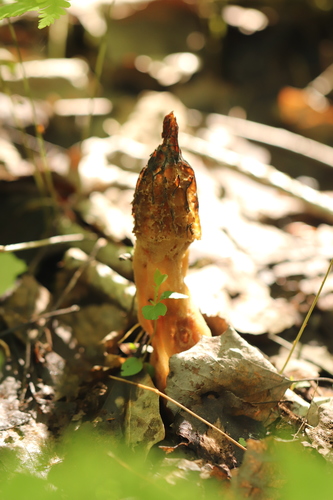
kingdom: Fungi
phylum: Ascomycota
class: Pezizomycetes
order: Pezizales
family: Morchellaceae
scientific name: Morchellaceae
